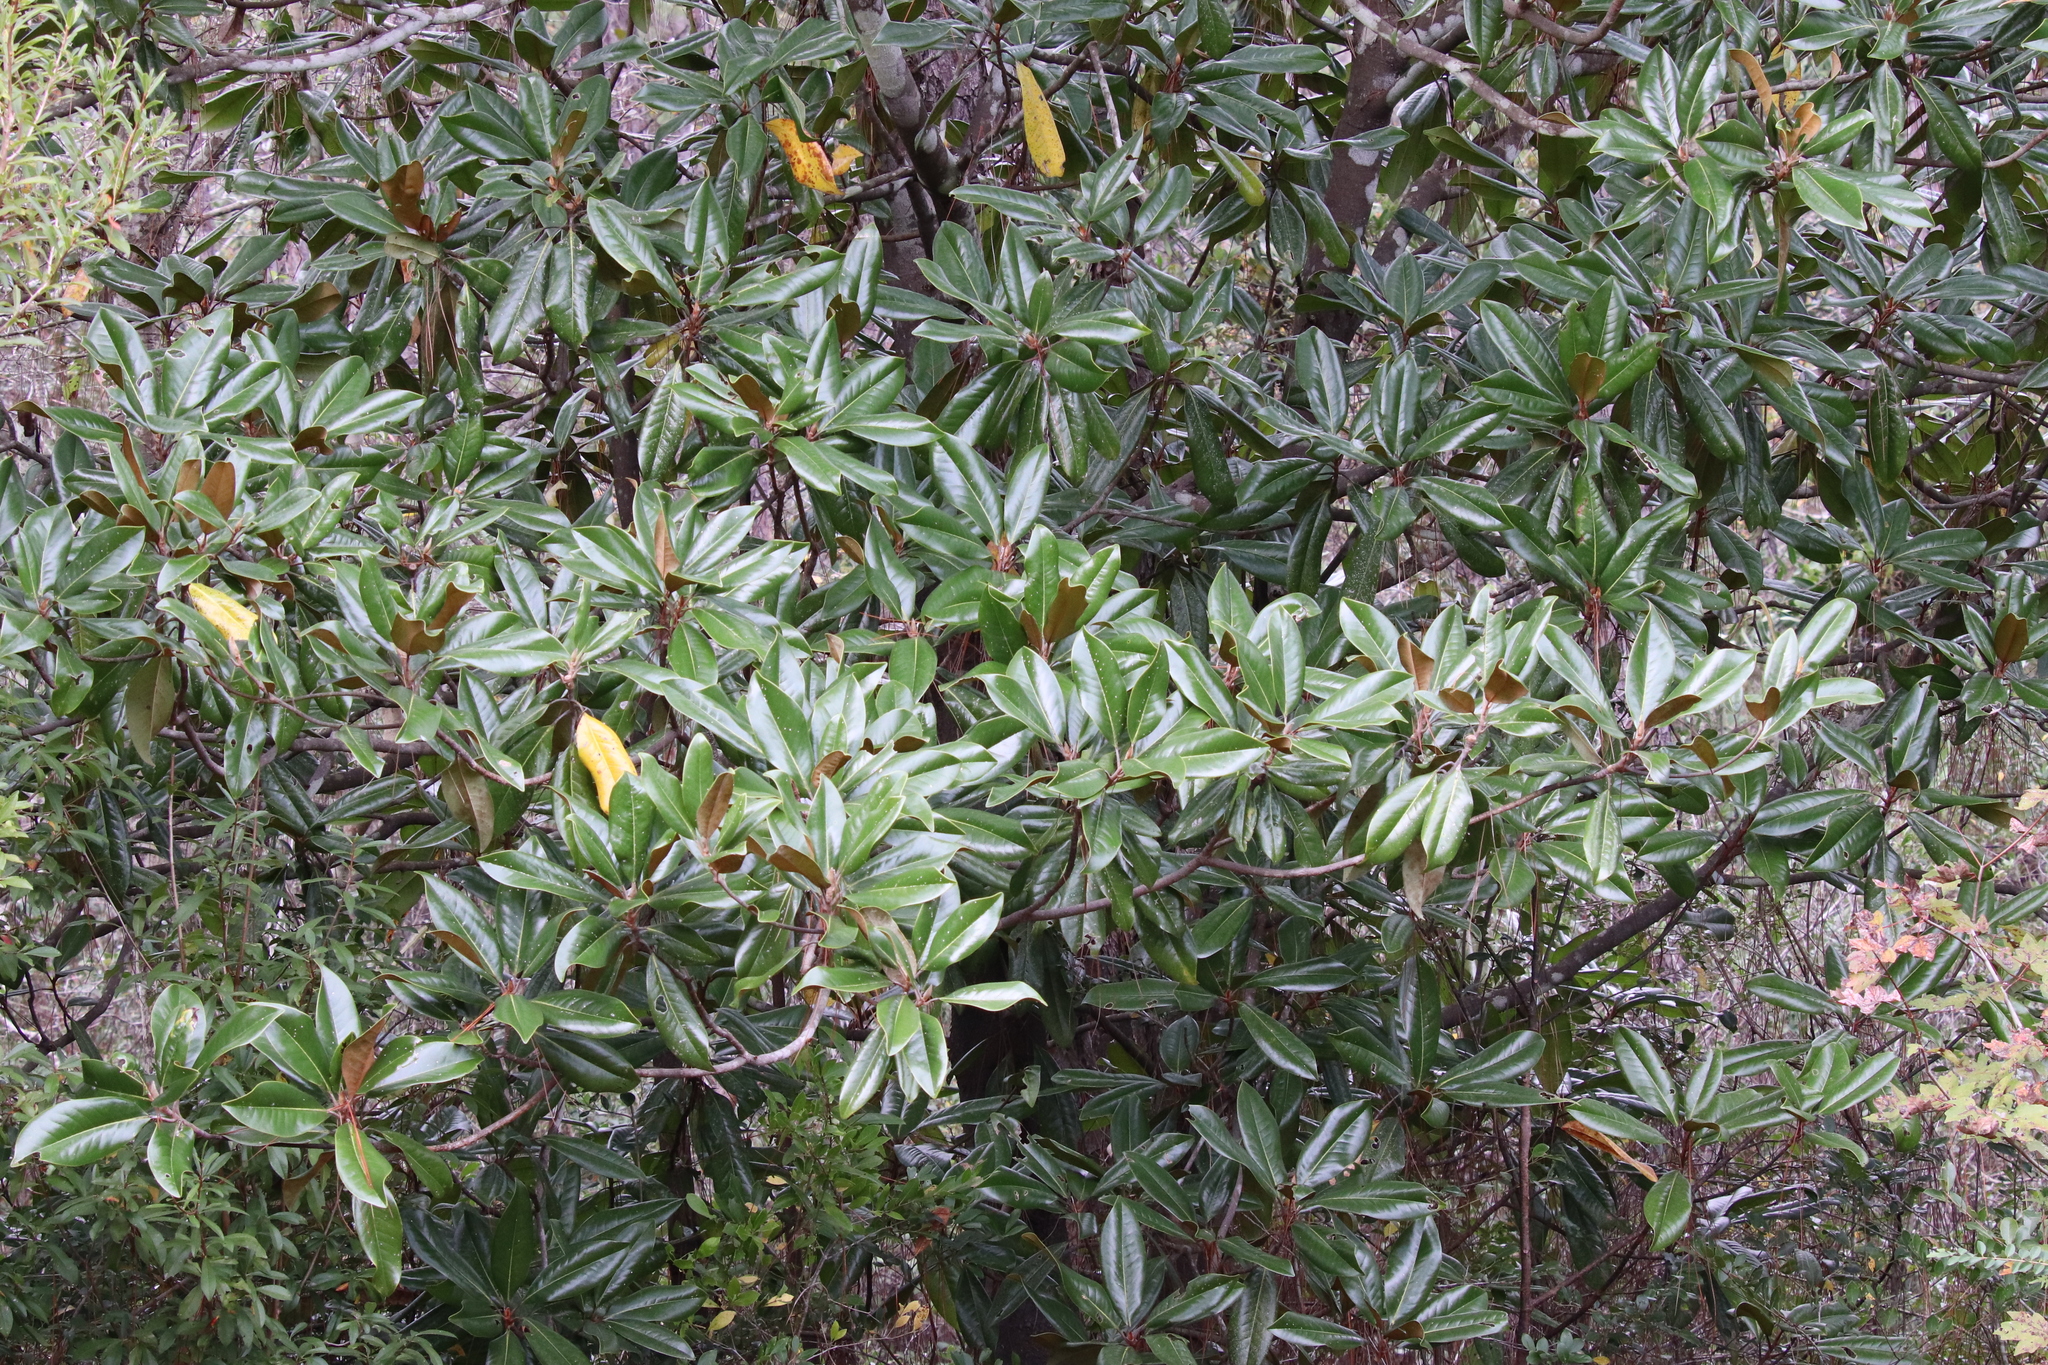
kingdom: Plantae
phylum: Tracheophyta
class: Magnoliopsida
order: Magnoliales
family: Magnoliaceae
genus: Magnolia
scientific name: Magnolia grandiflora
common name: Southern magnolia
